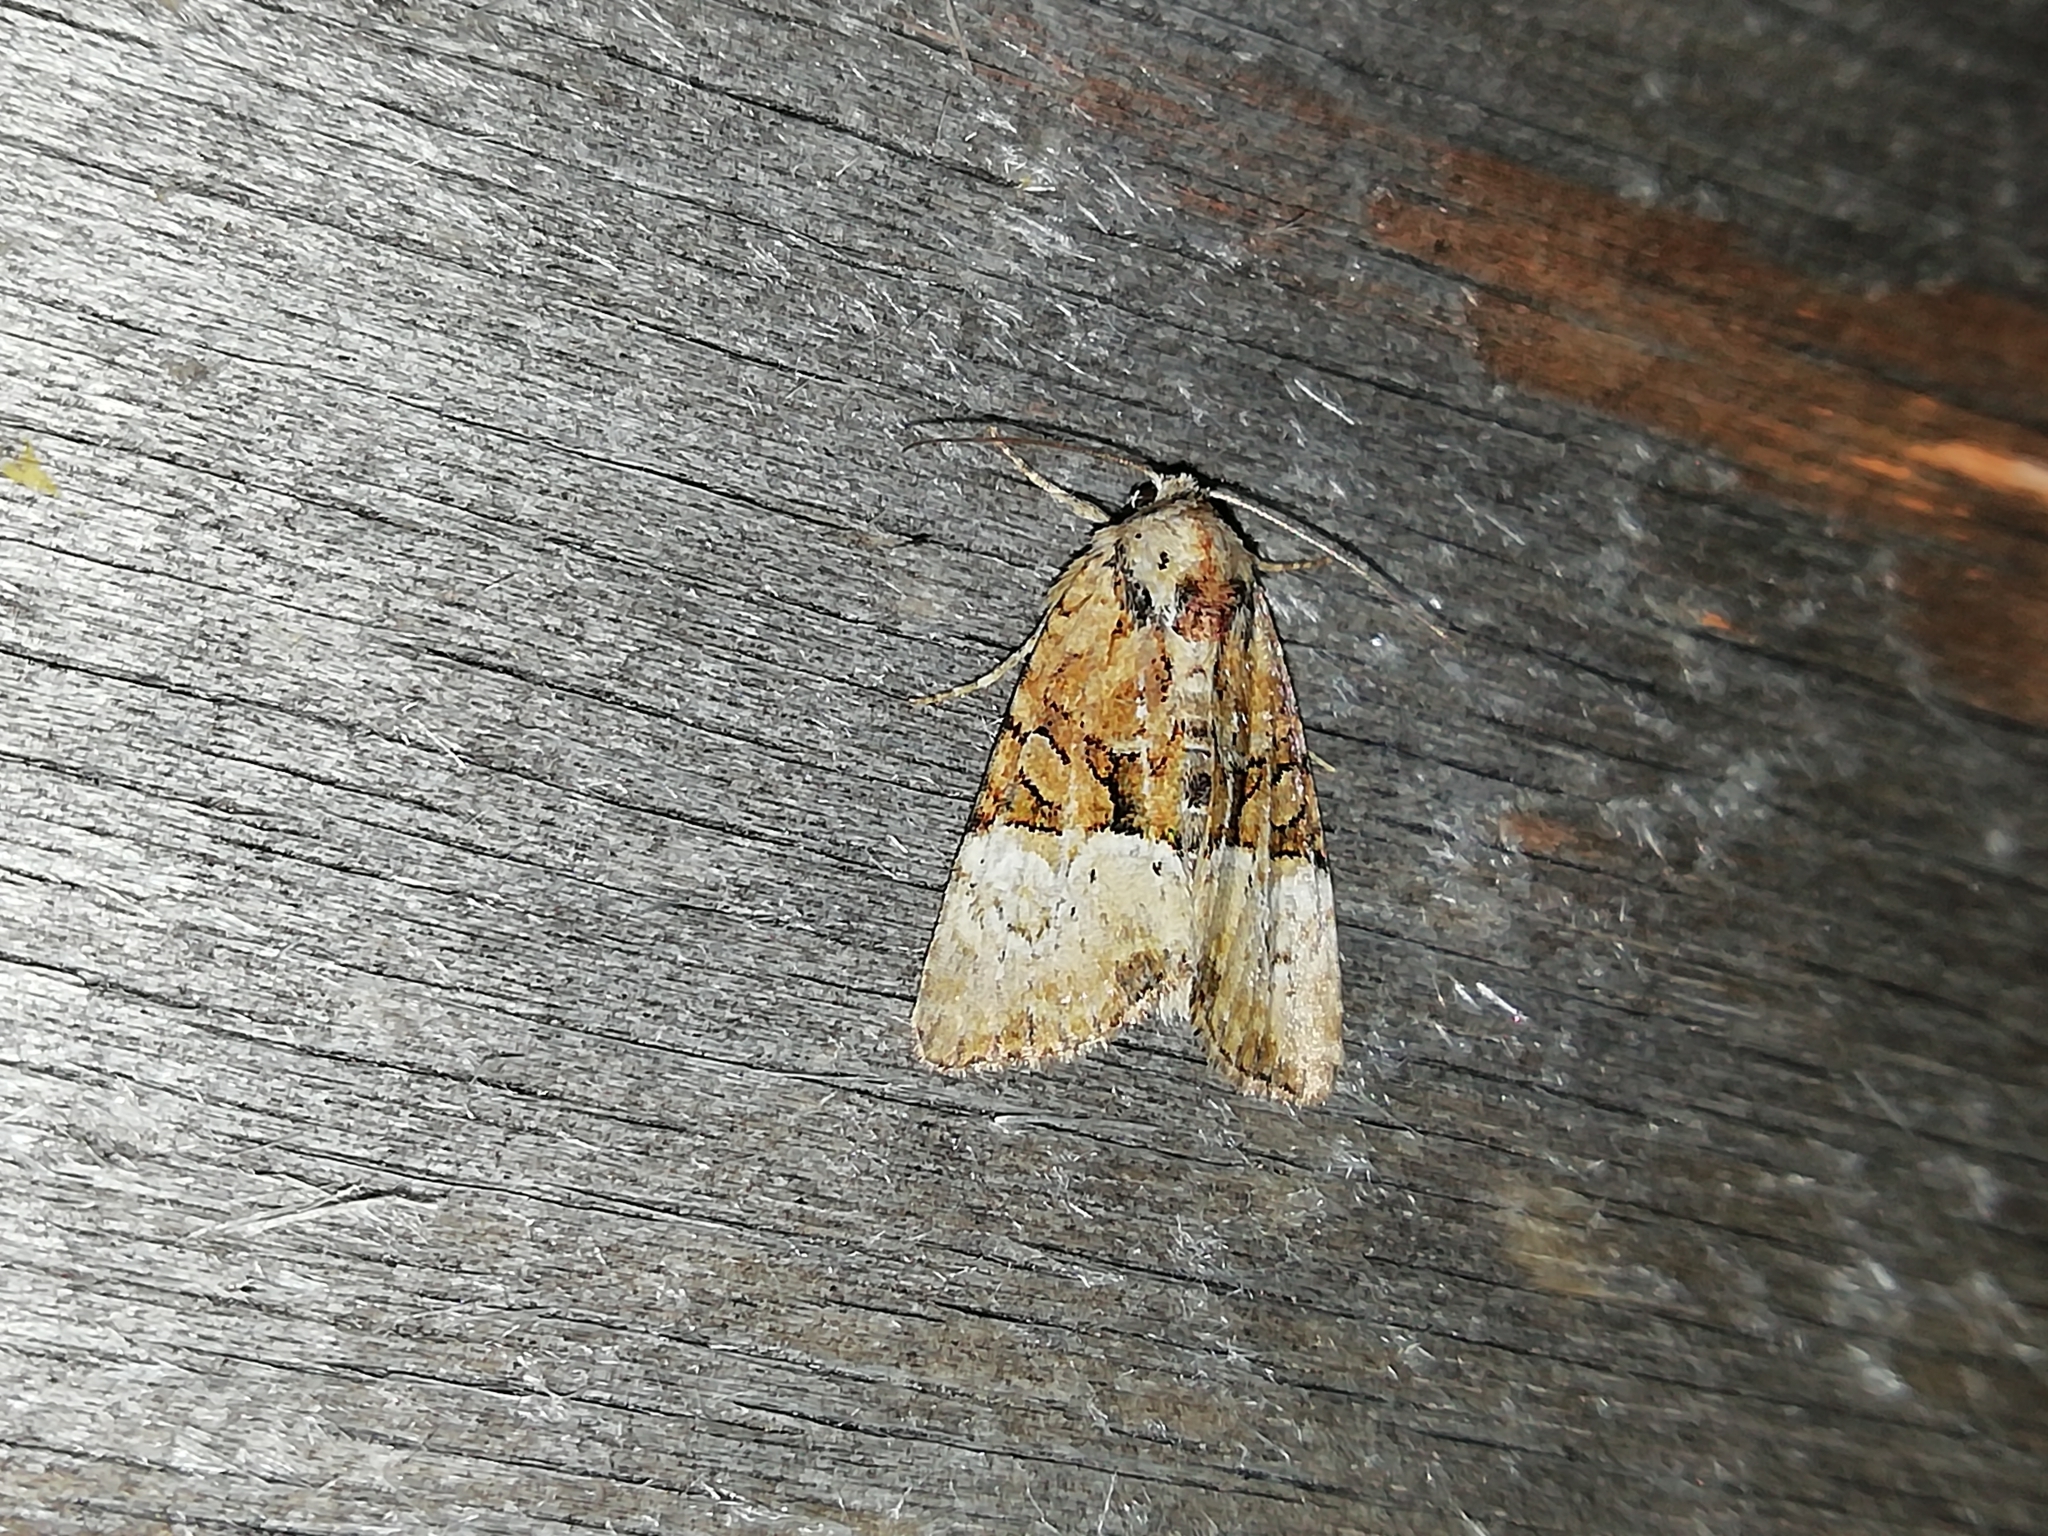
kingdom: Animalia
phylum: Arthropoda
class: Insecta
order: Lepidoptera
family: Noctuidae
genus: Mesoligia
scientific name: Mesoligia furuncula
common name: Cloaked minor
